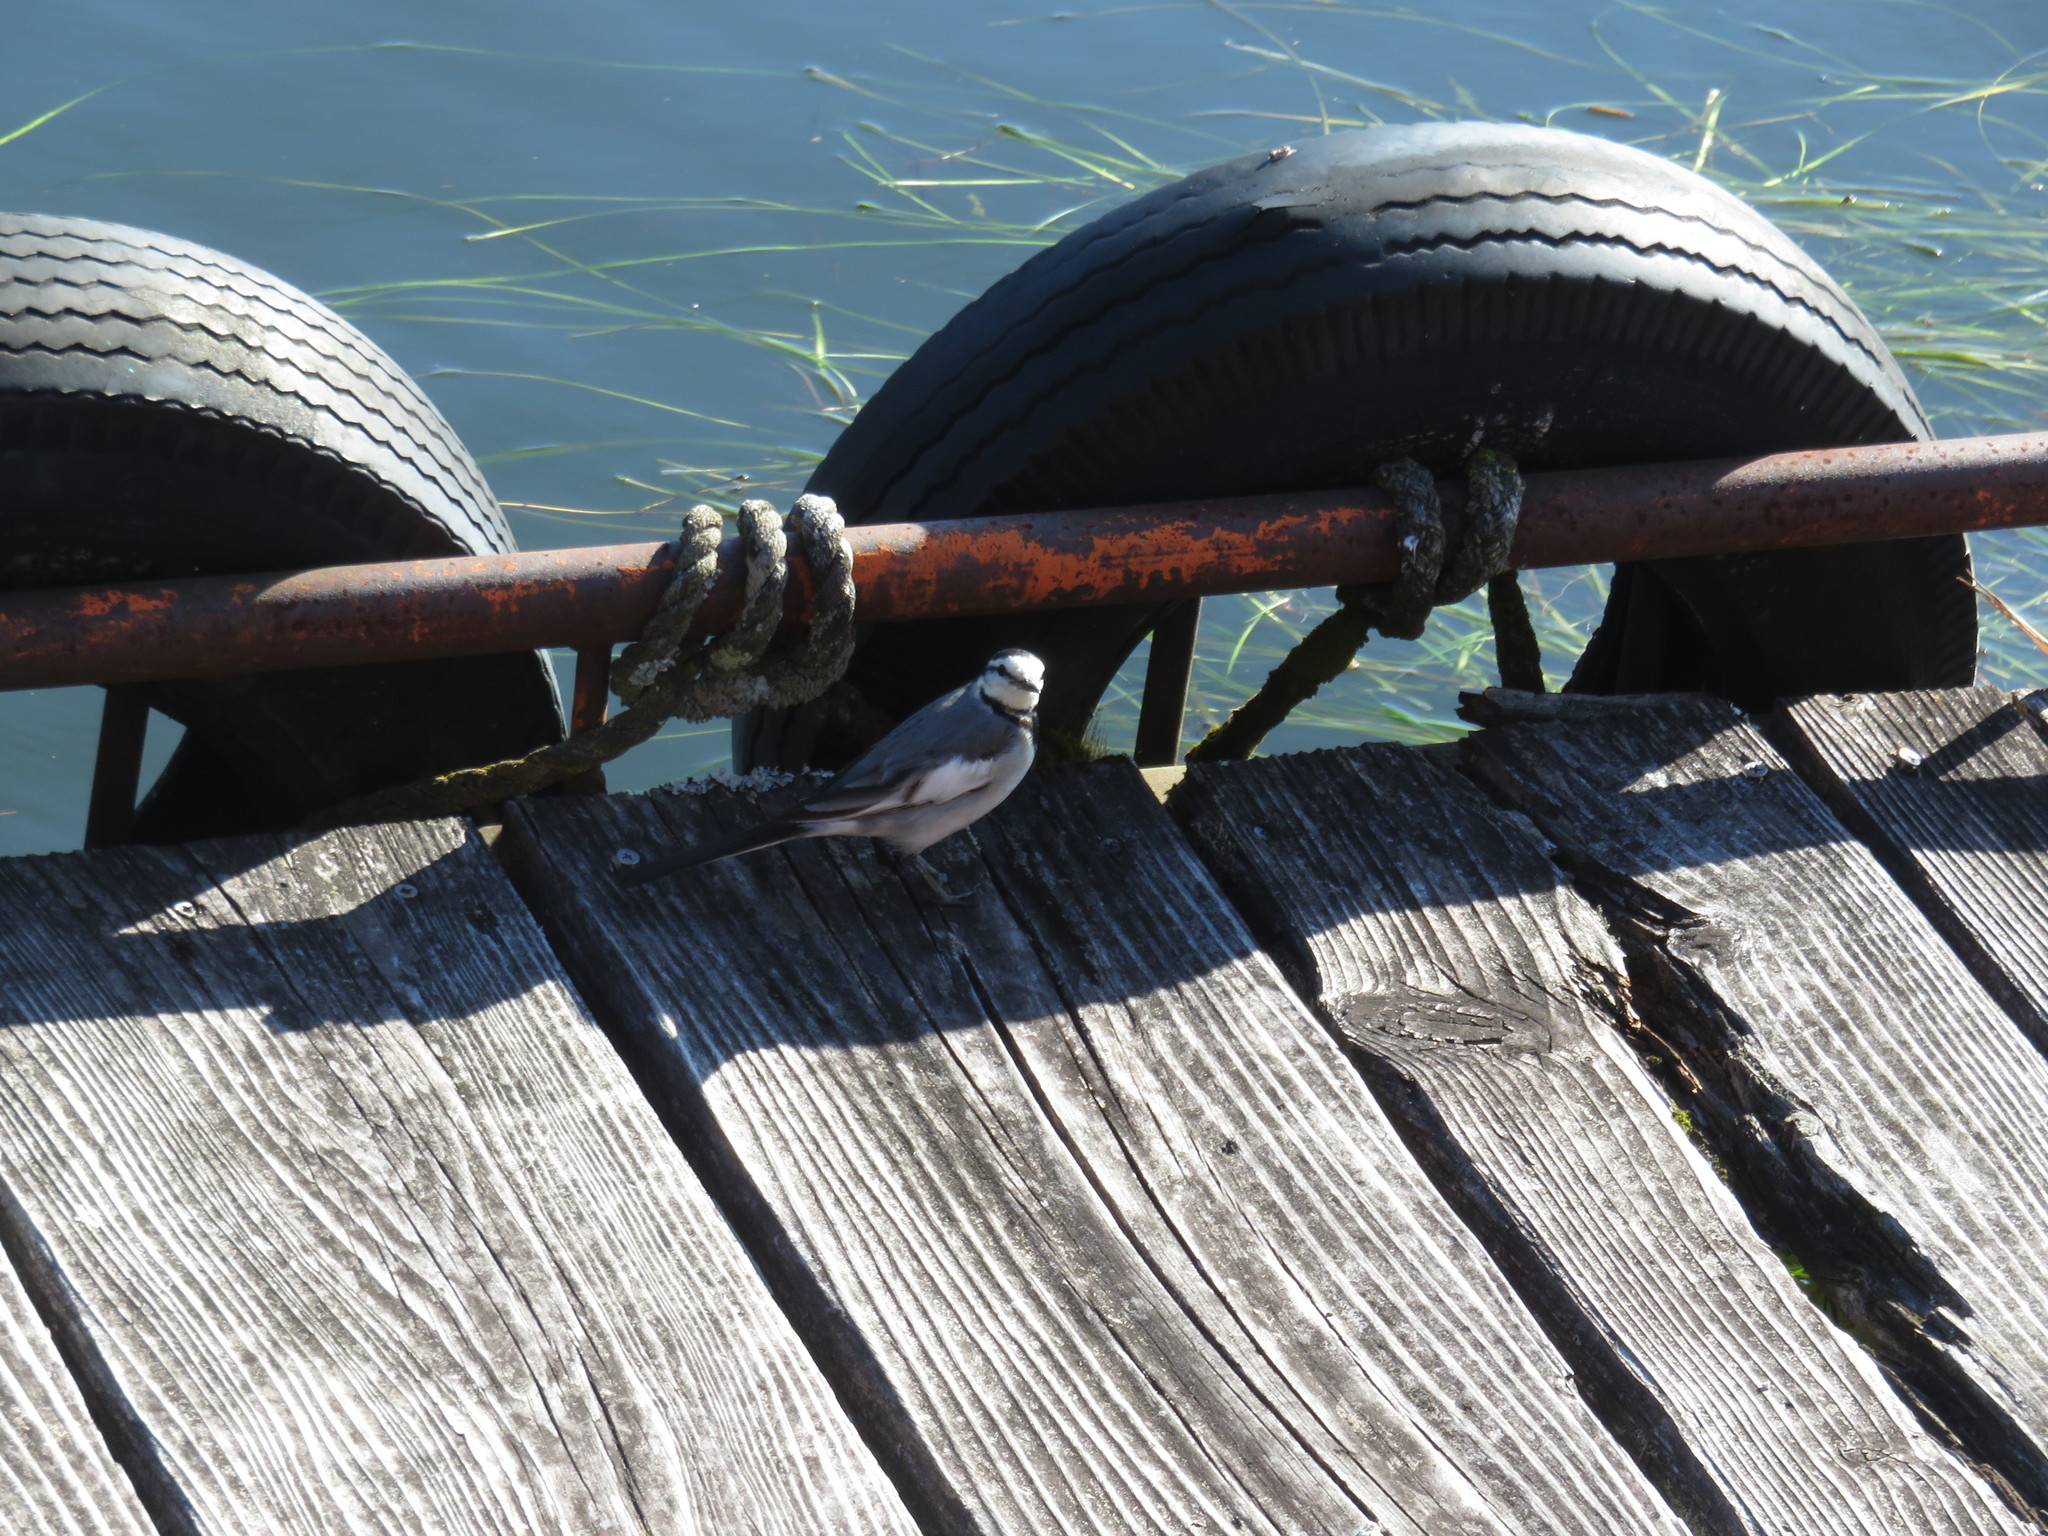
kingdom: Animalia
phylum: Chordata
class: Aves
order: Passeriformes
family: Motacillidae
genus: Motacilla
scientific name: Motacilla alba
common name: White wagtail
